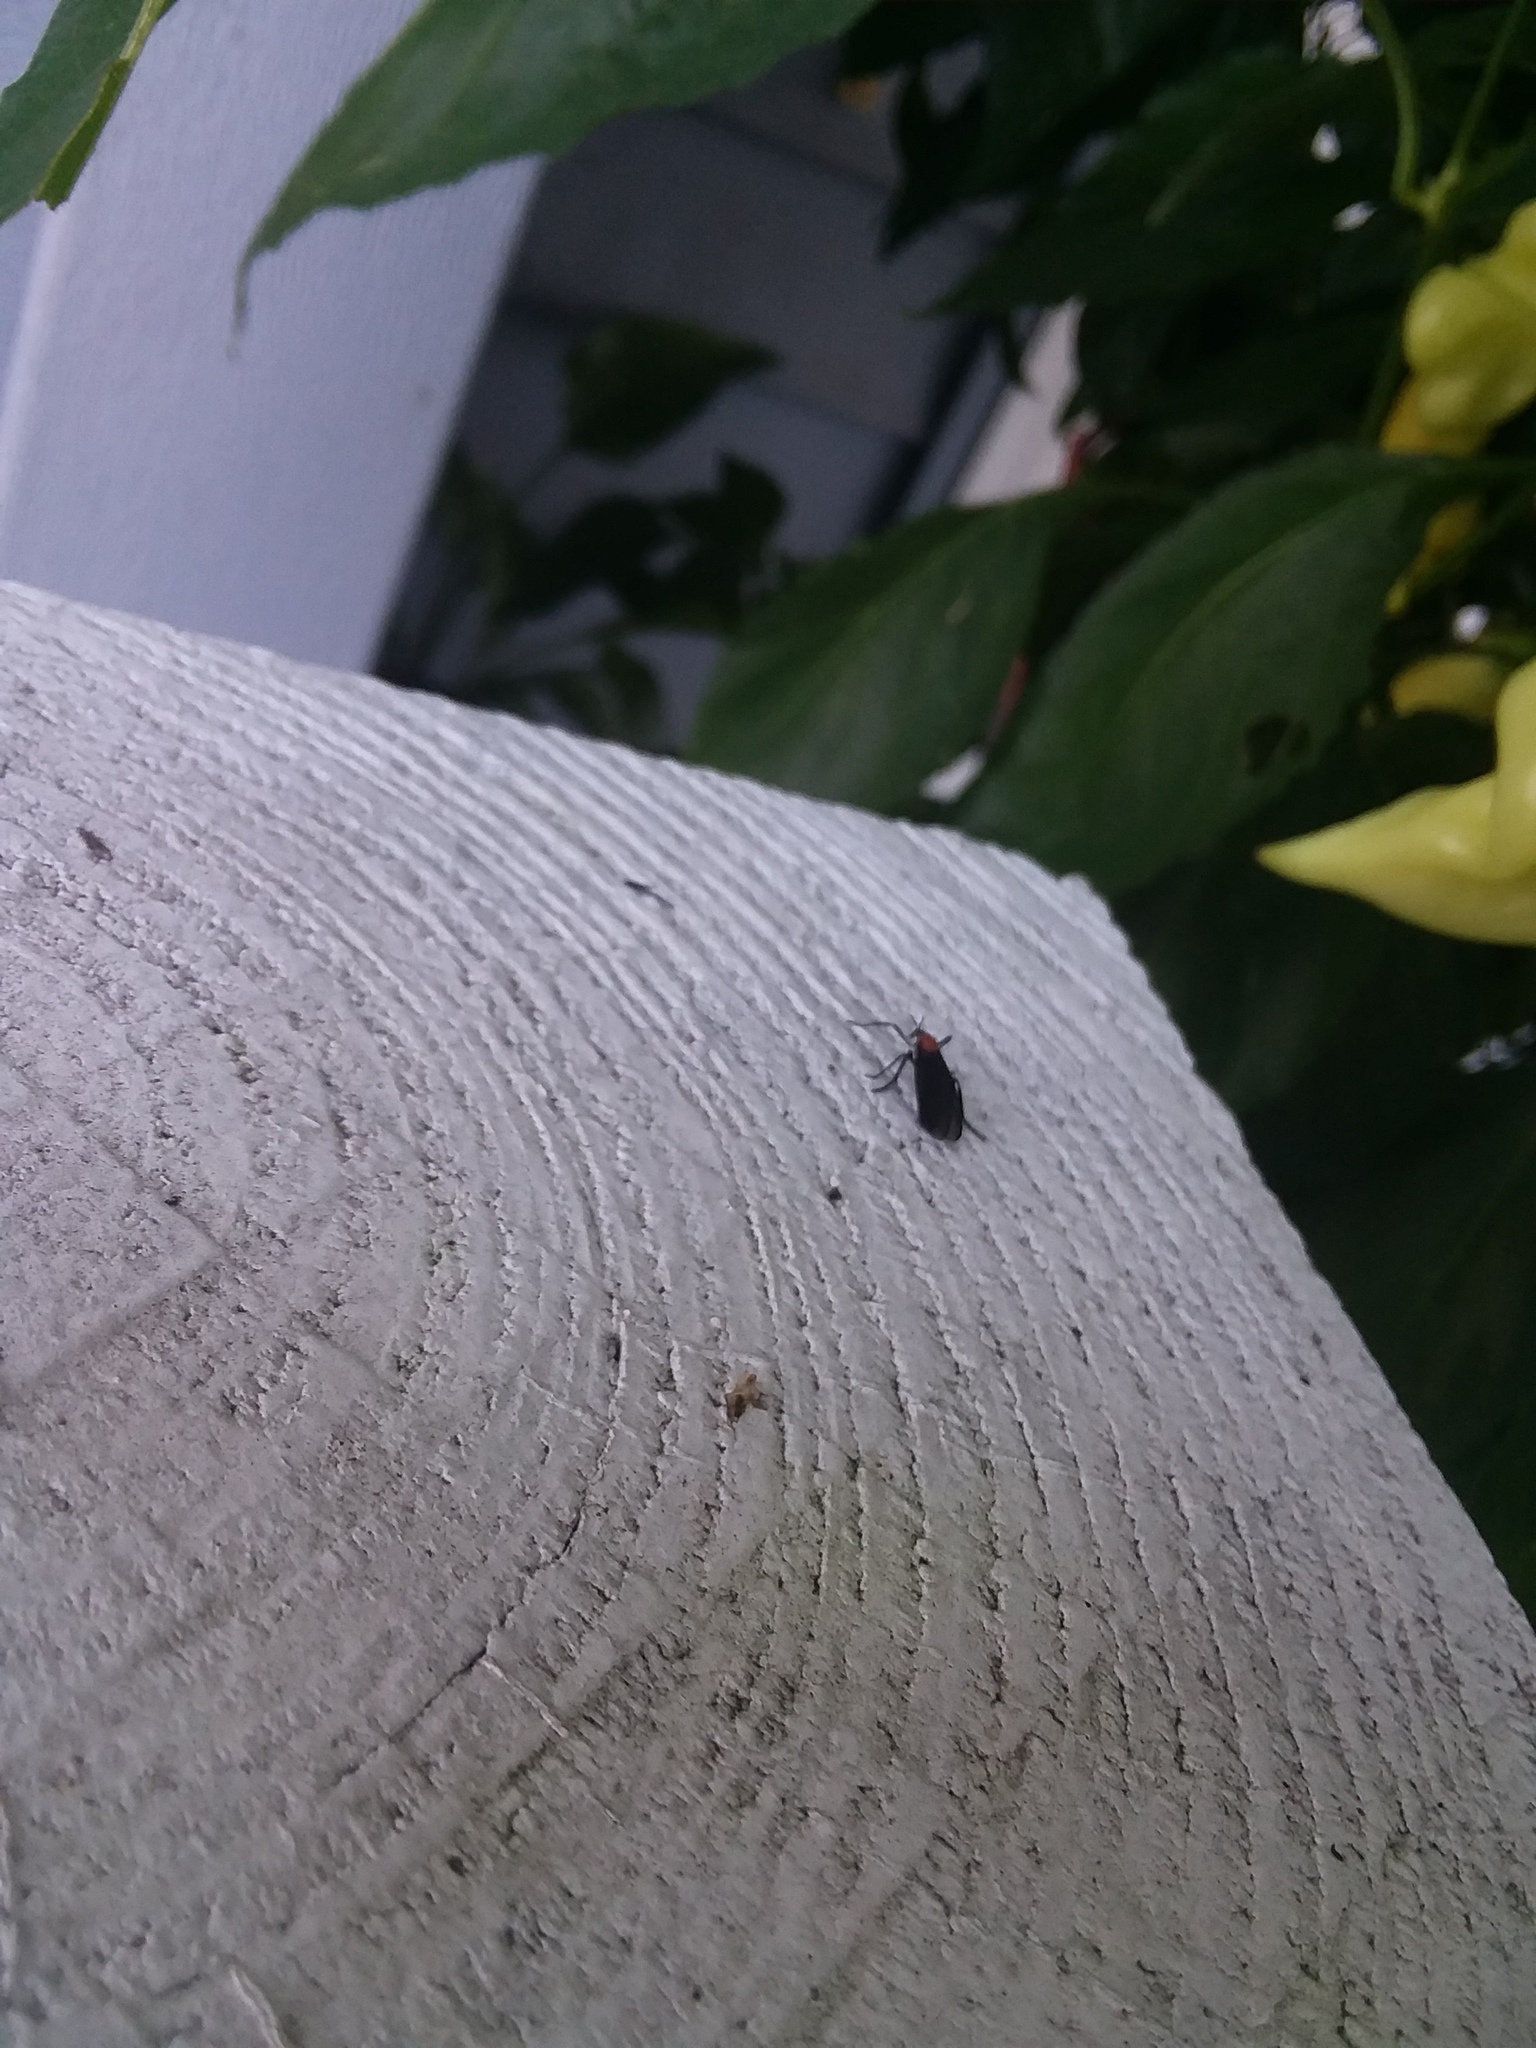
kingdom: Animalia
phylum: Arthropoda
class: Insecta
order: Diptera
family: Bibionidae
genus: Plecia
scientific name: Plecia nearctica
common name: March fly
